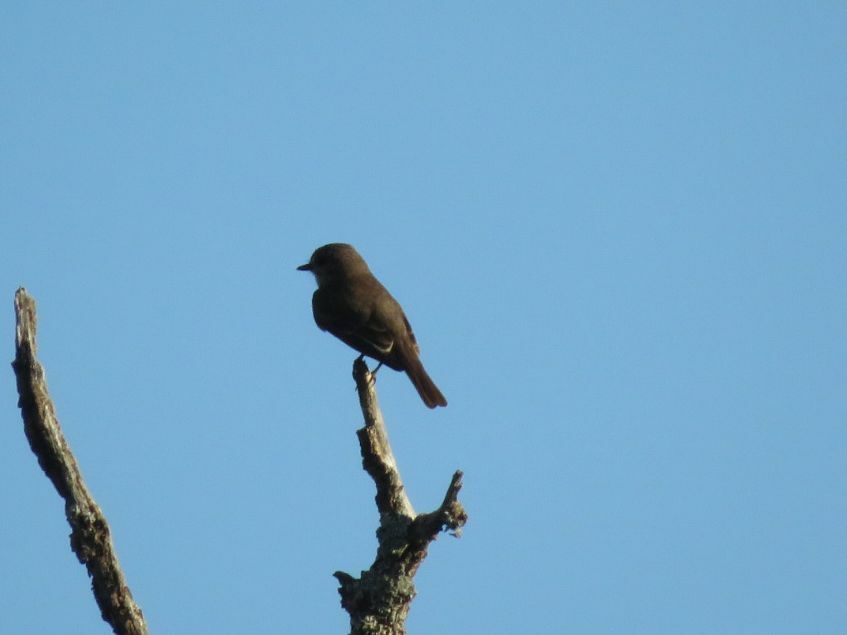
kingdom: Animalia
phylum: Chordata
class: Aves
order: Passeriformes
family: Tyrannidae
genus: Pyrocephalus
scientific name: Pyrocephalus rubinus
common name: Vermilion flycatcher
